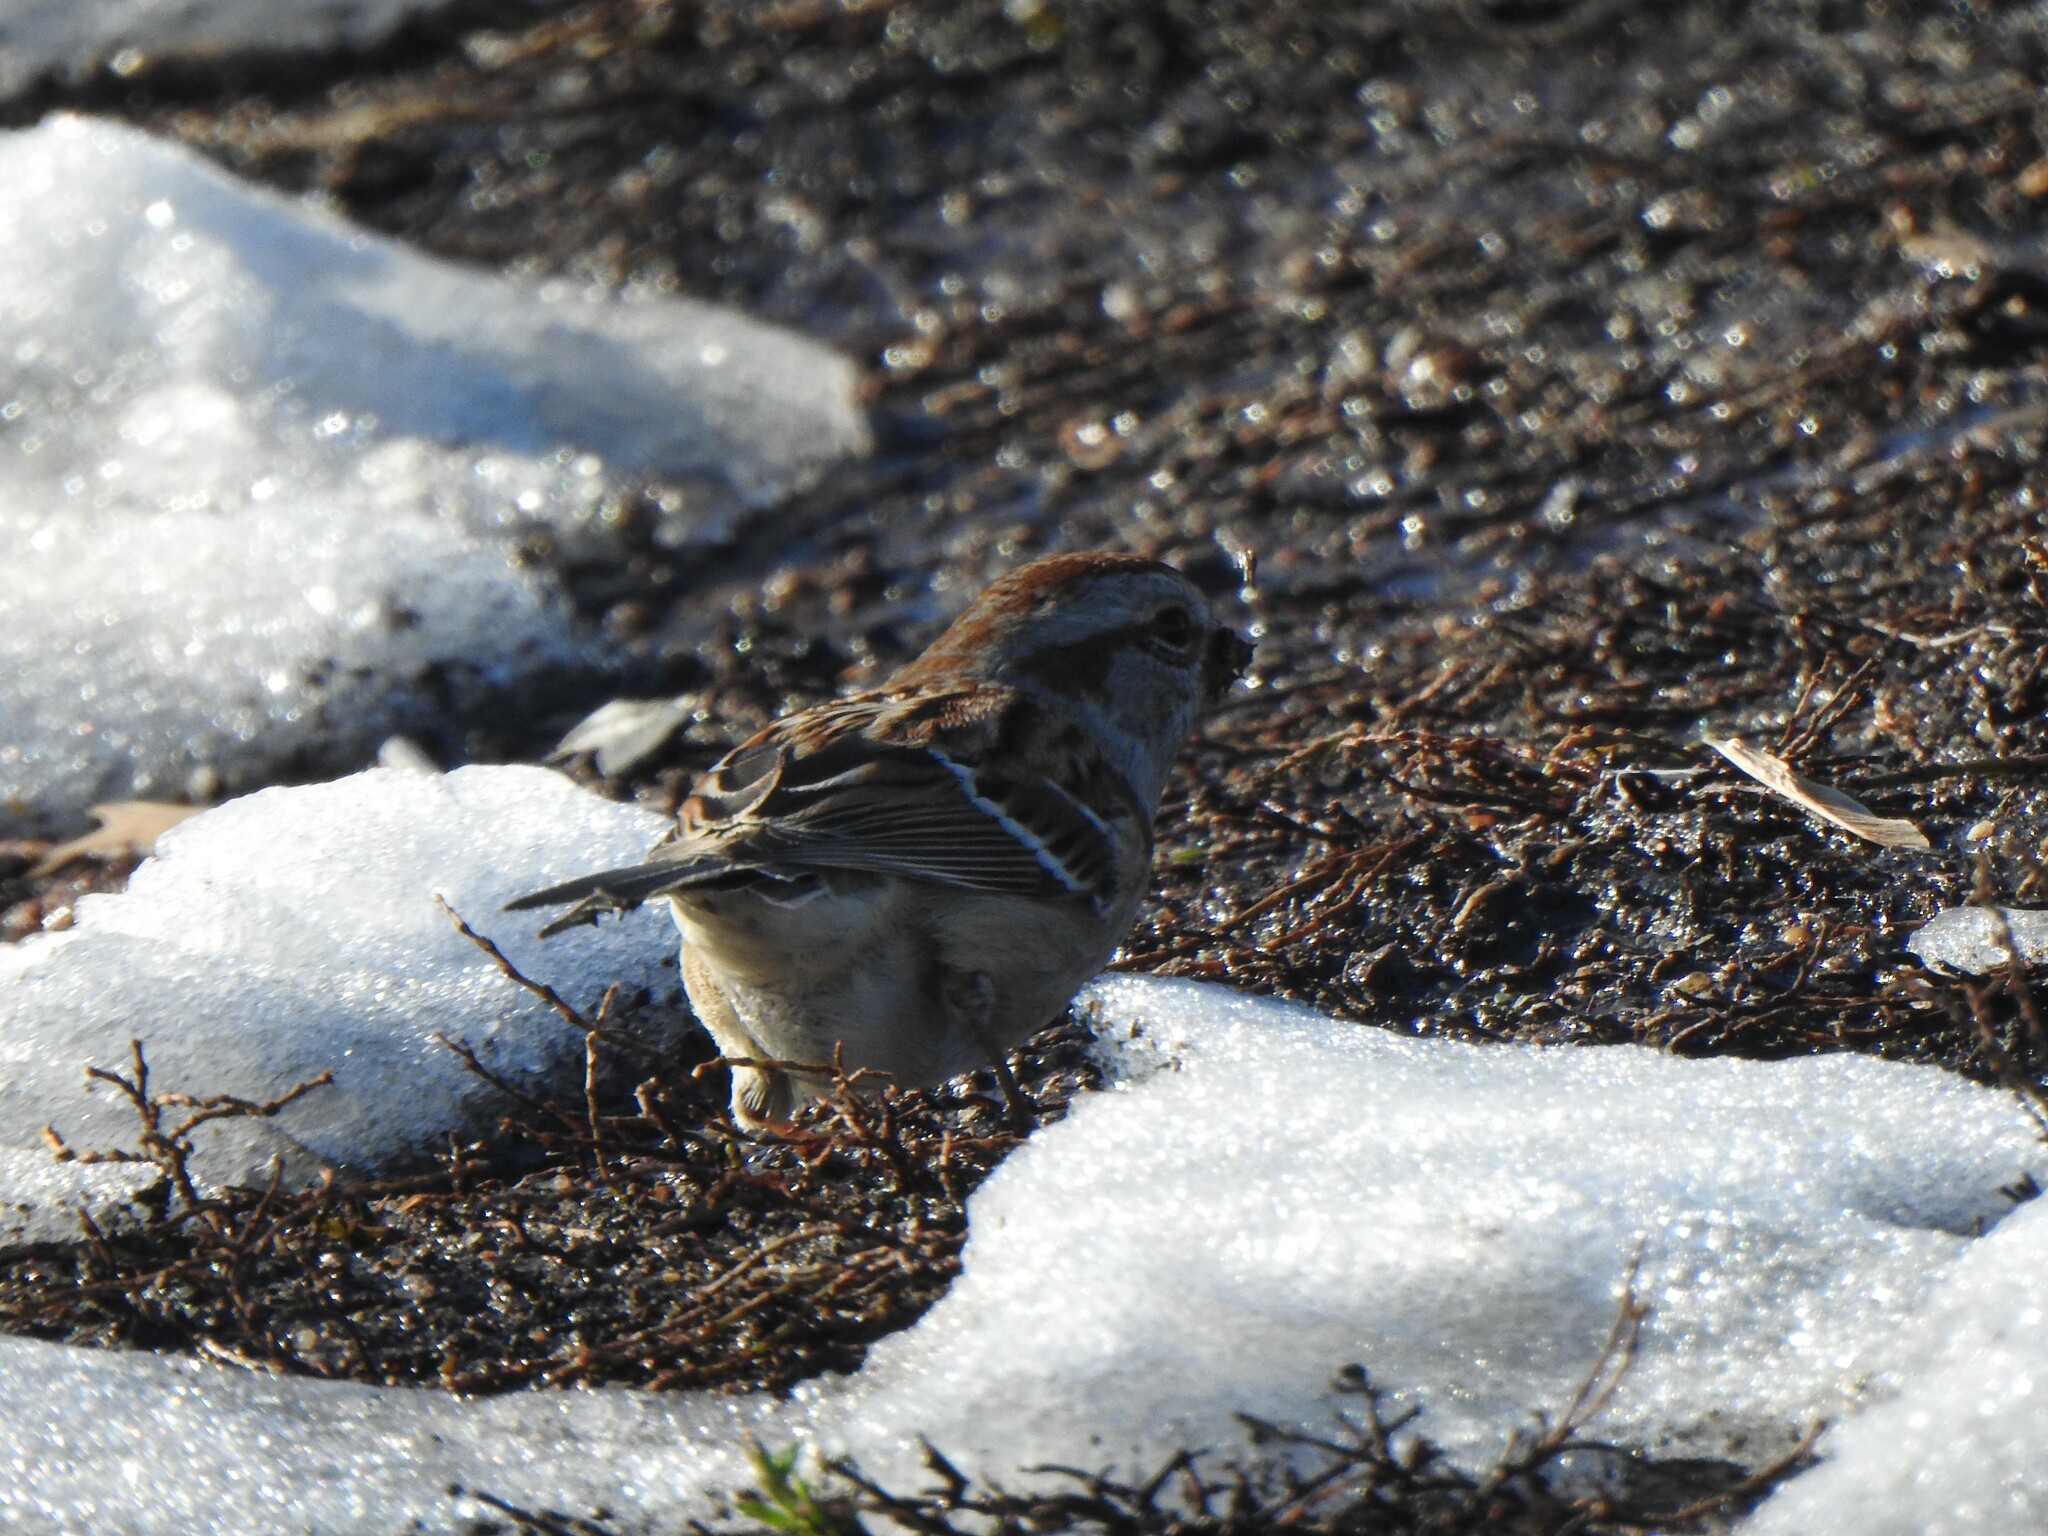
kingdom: Animalia
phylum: Chordata
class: Aves
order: Passeriformes
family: Passerellidae
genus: Spizelloides
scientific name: Spizelloides arborea
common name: American tree sparrow
